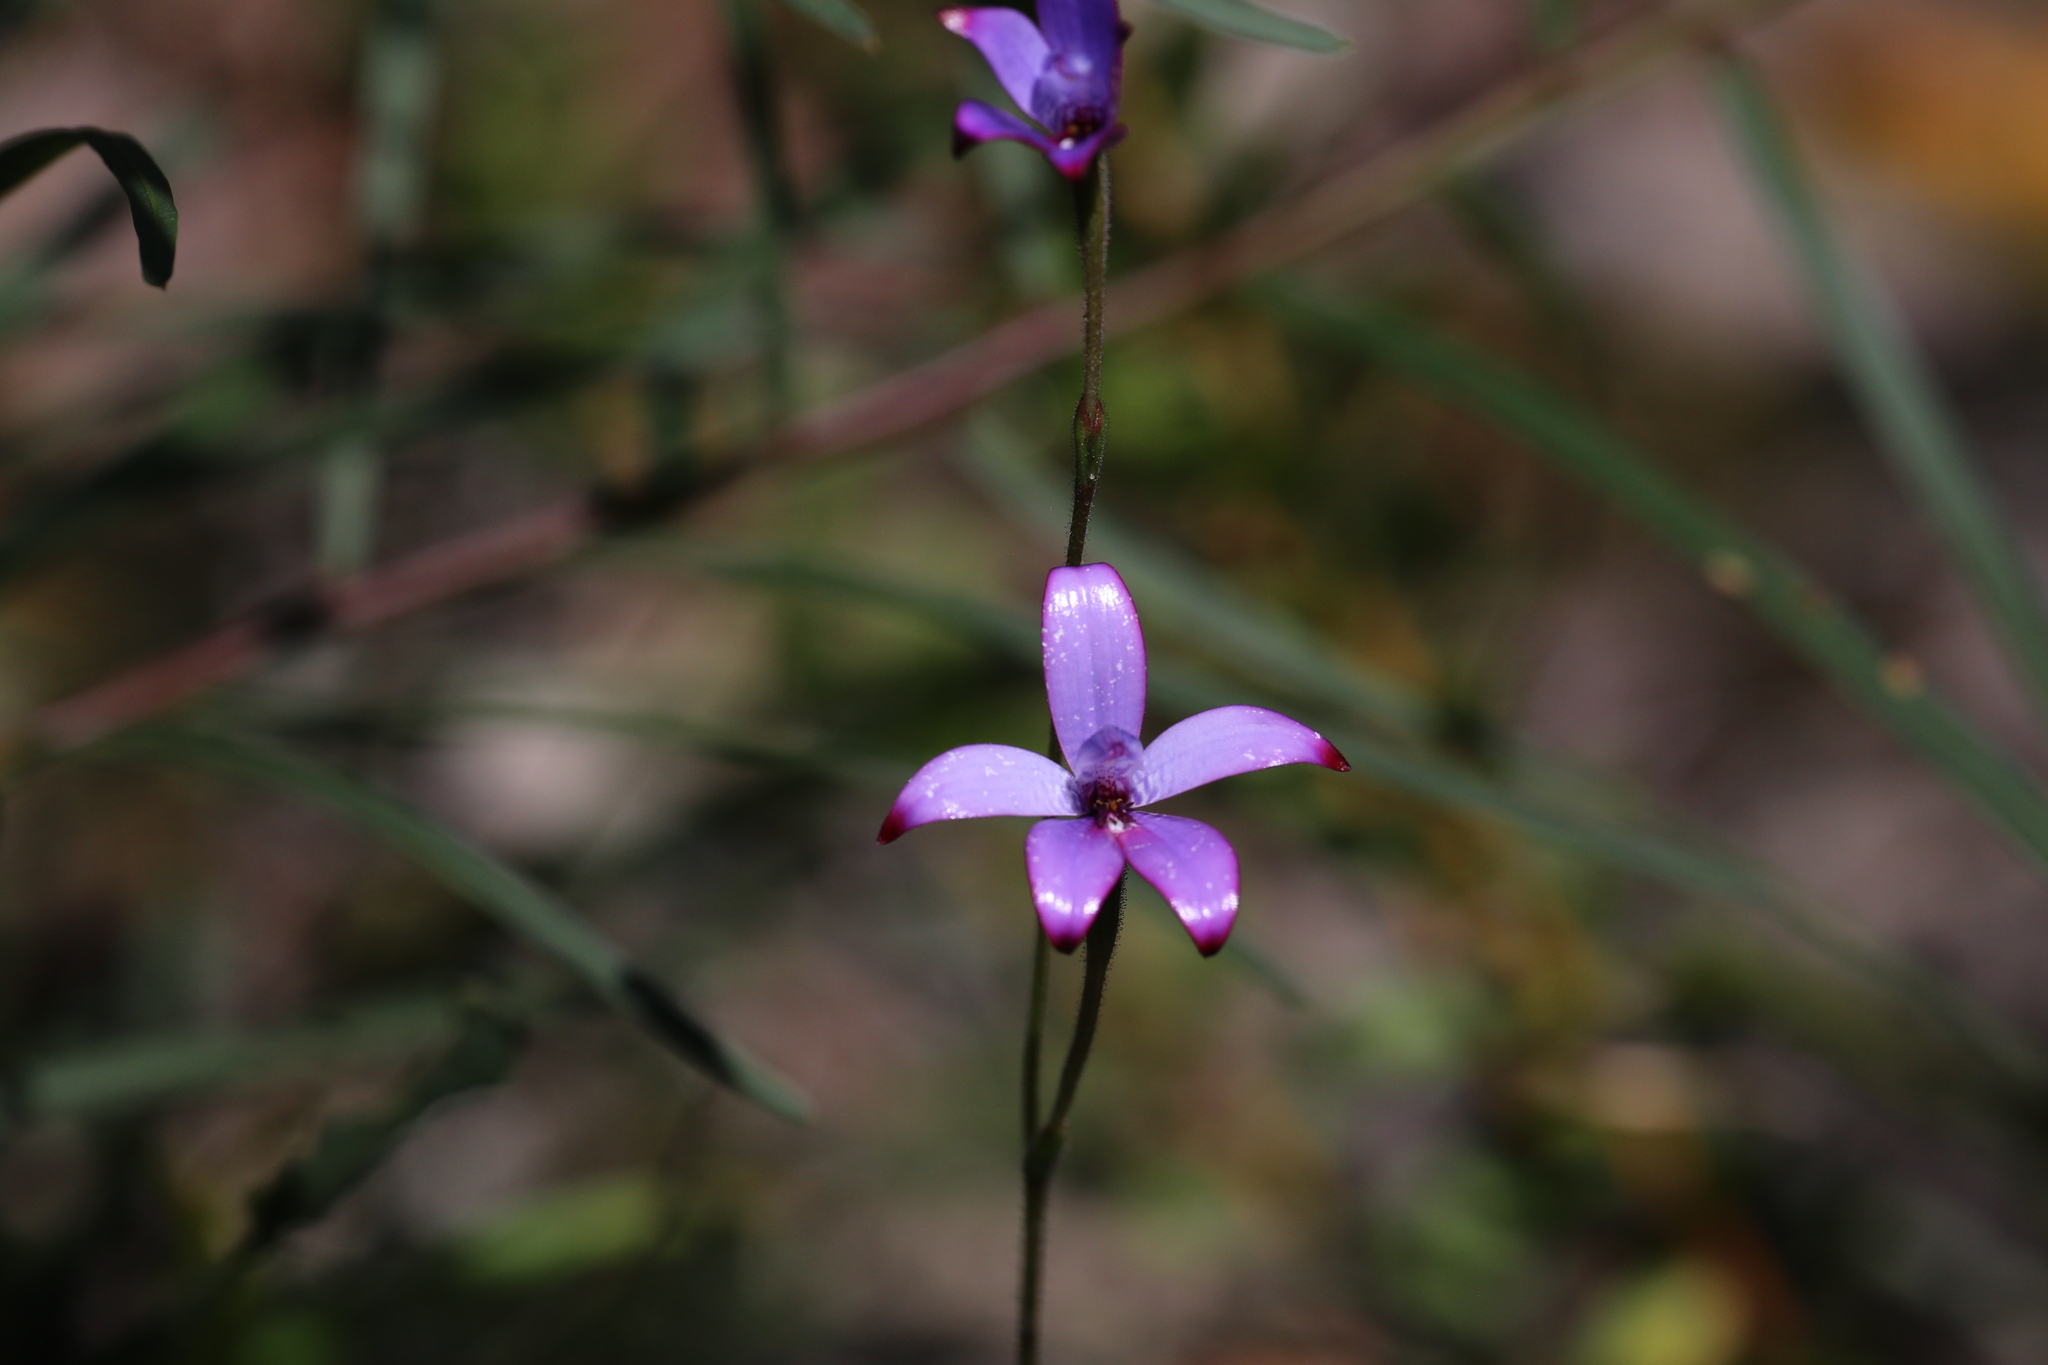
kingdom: Plantae
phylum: Tracheophyta
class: Liliopsida
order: Asparagales
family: Orchidaceae
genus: Caladenia
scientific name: Caladenia brunonis
